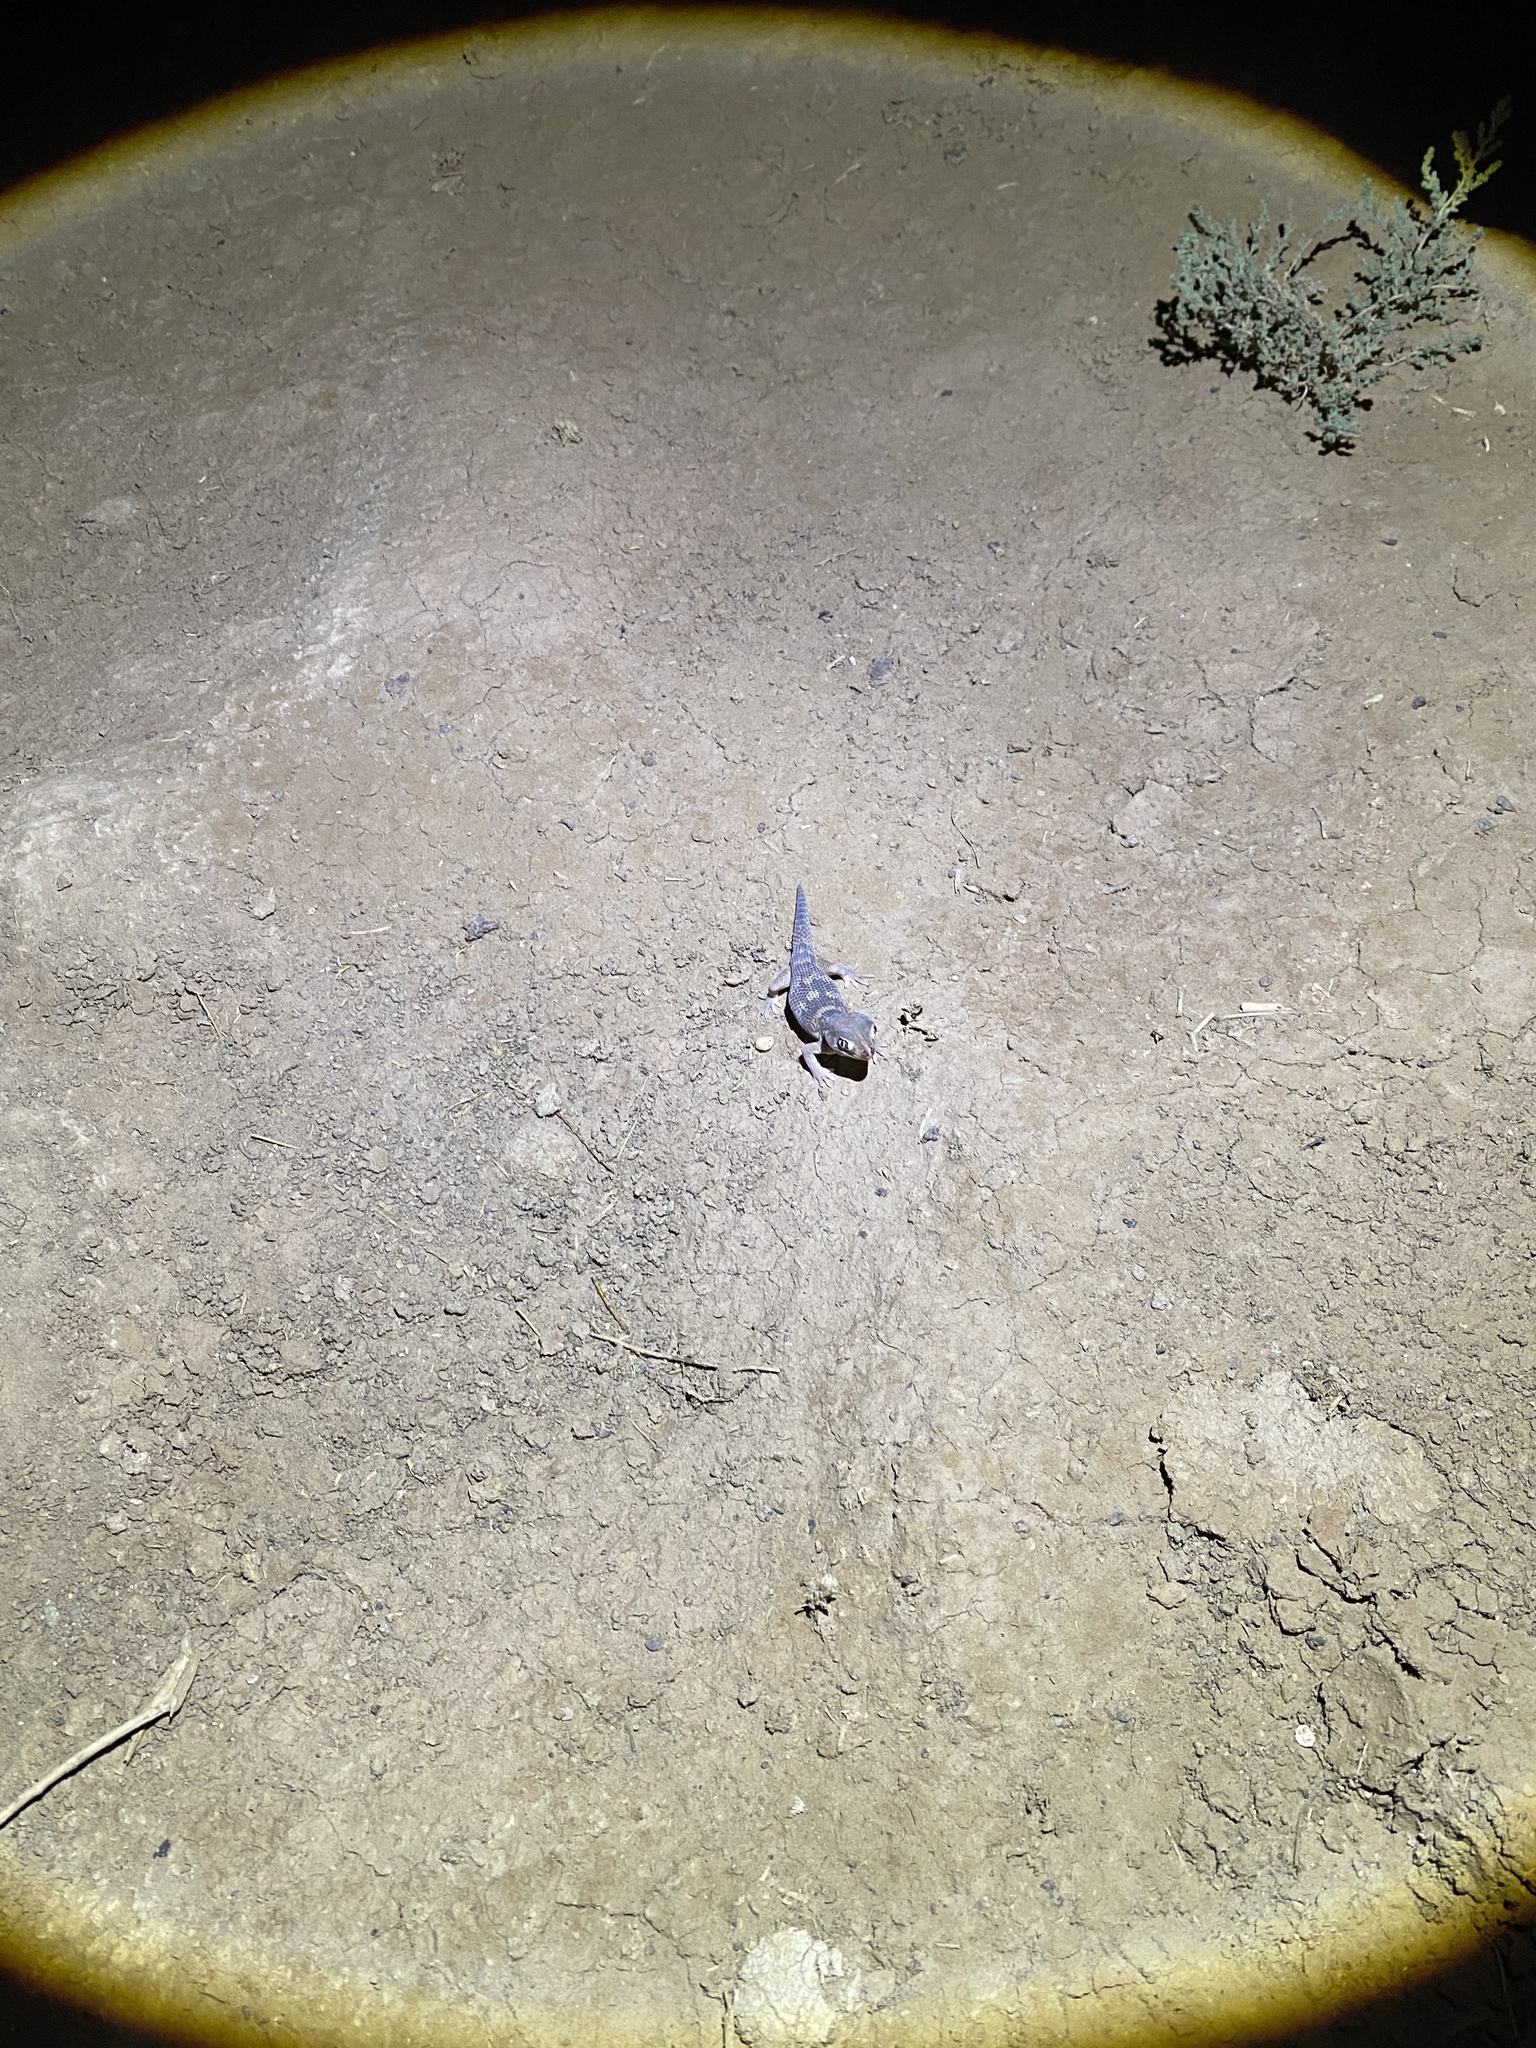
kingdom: Animalia
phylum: Chordata
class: Squamata
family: Sphaerodactylidae
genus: Teratoscincus
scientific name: Teratoscincus bedriagai
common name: Bedriaga's plate-tailed gecko
